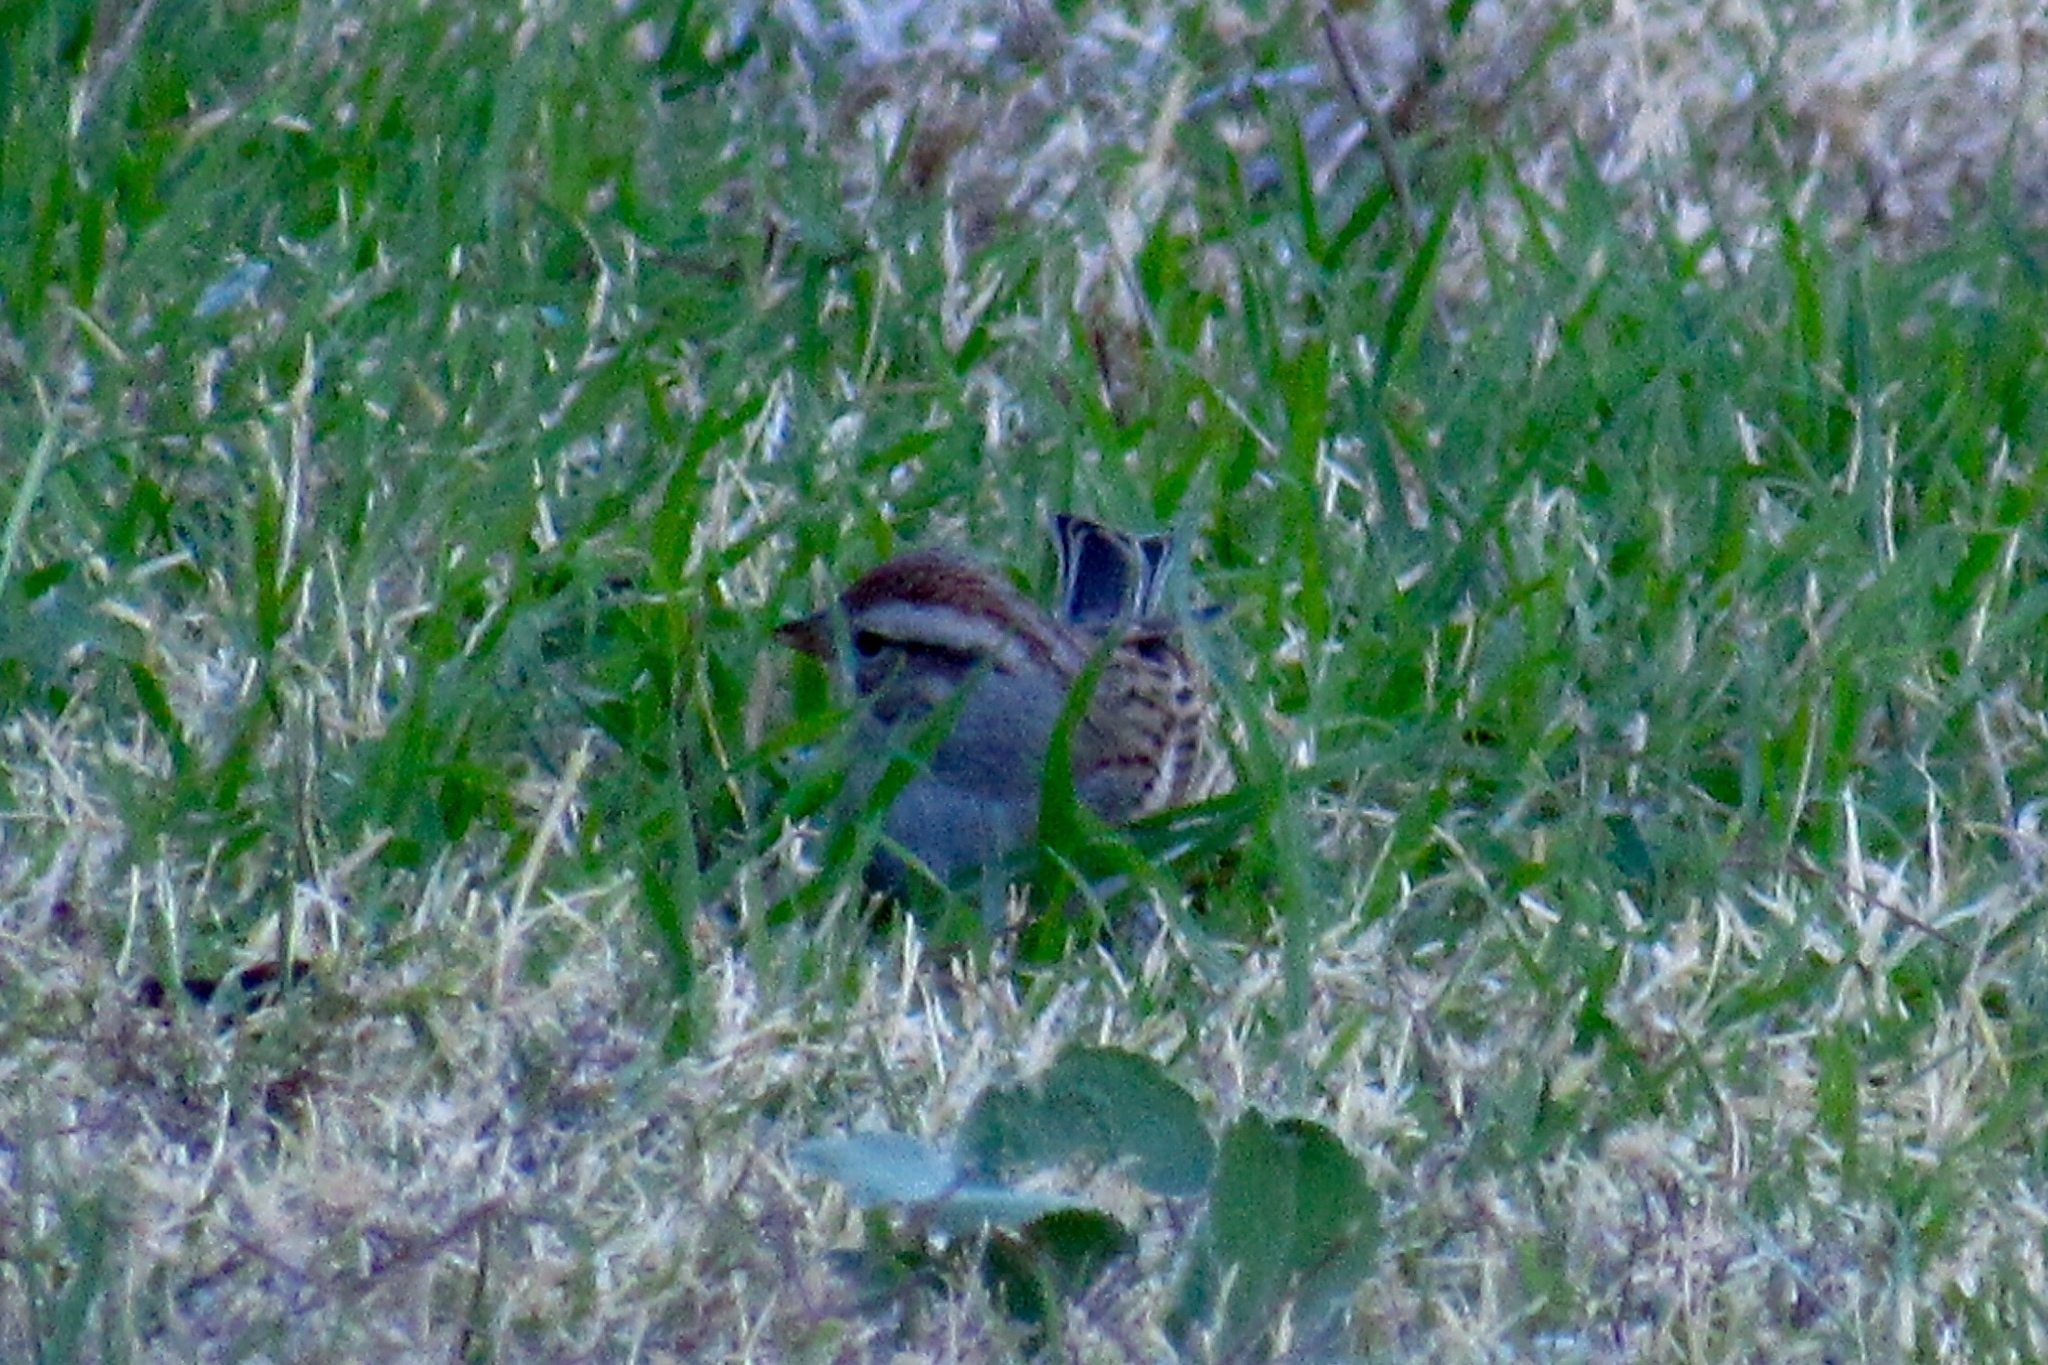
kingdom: Animalia
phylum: Chordata
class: Aves
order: Passeriformes
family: Passerellidae
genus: Spizella
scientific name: Spizella passerina
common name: Chipping sparrow
